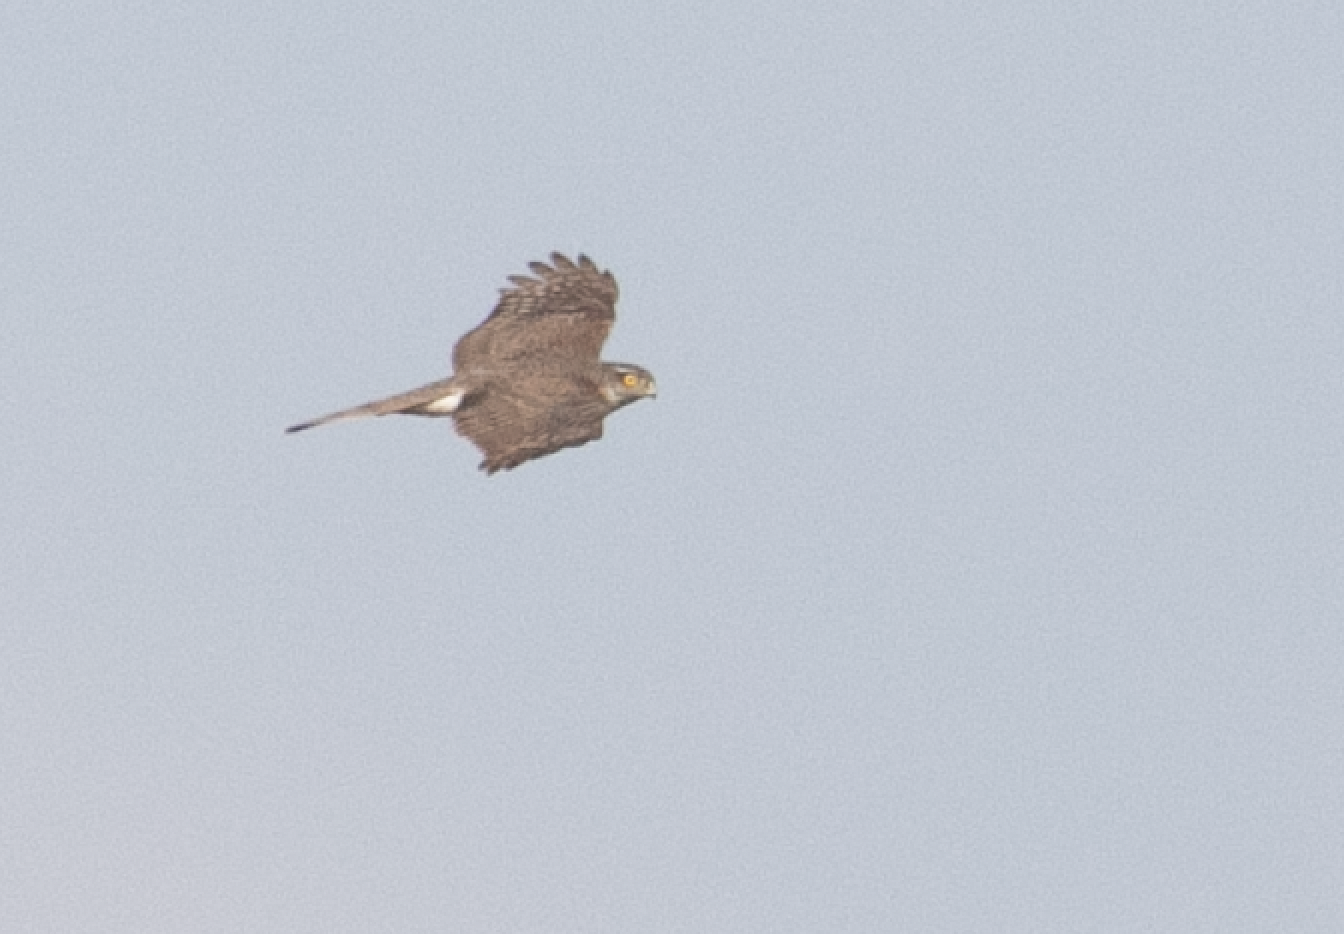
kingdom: Animalia
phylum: Chordata
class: Aves
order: Accipitriformes
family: Accipitridae
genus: Accipiter
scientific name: Accipiter nisus
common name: Eurasian sparrowhawk
